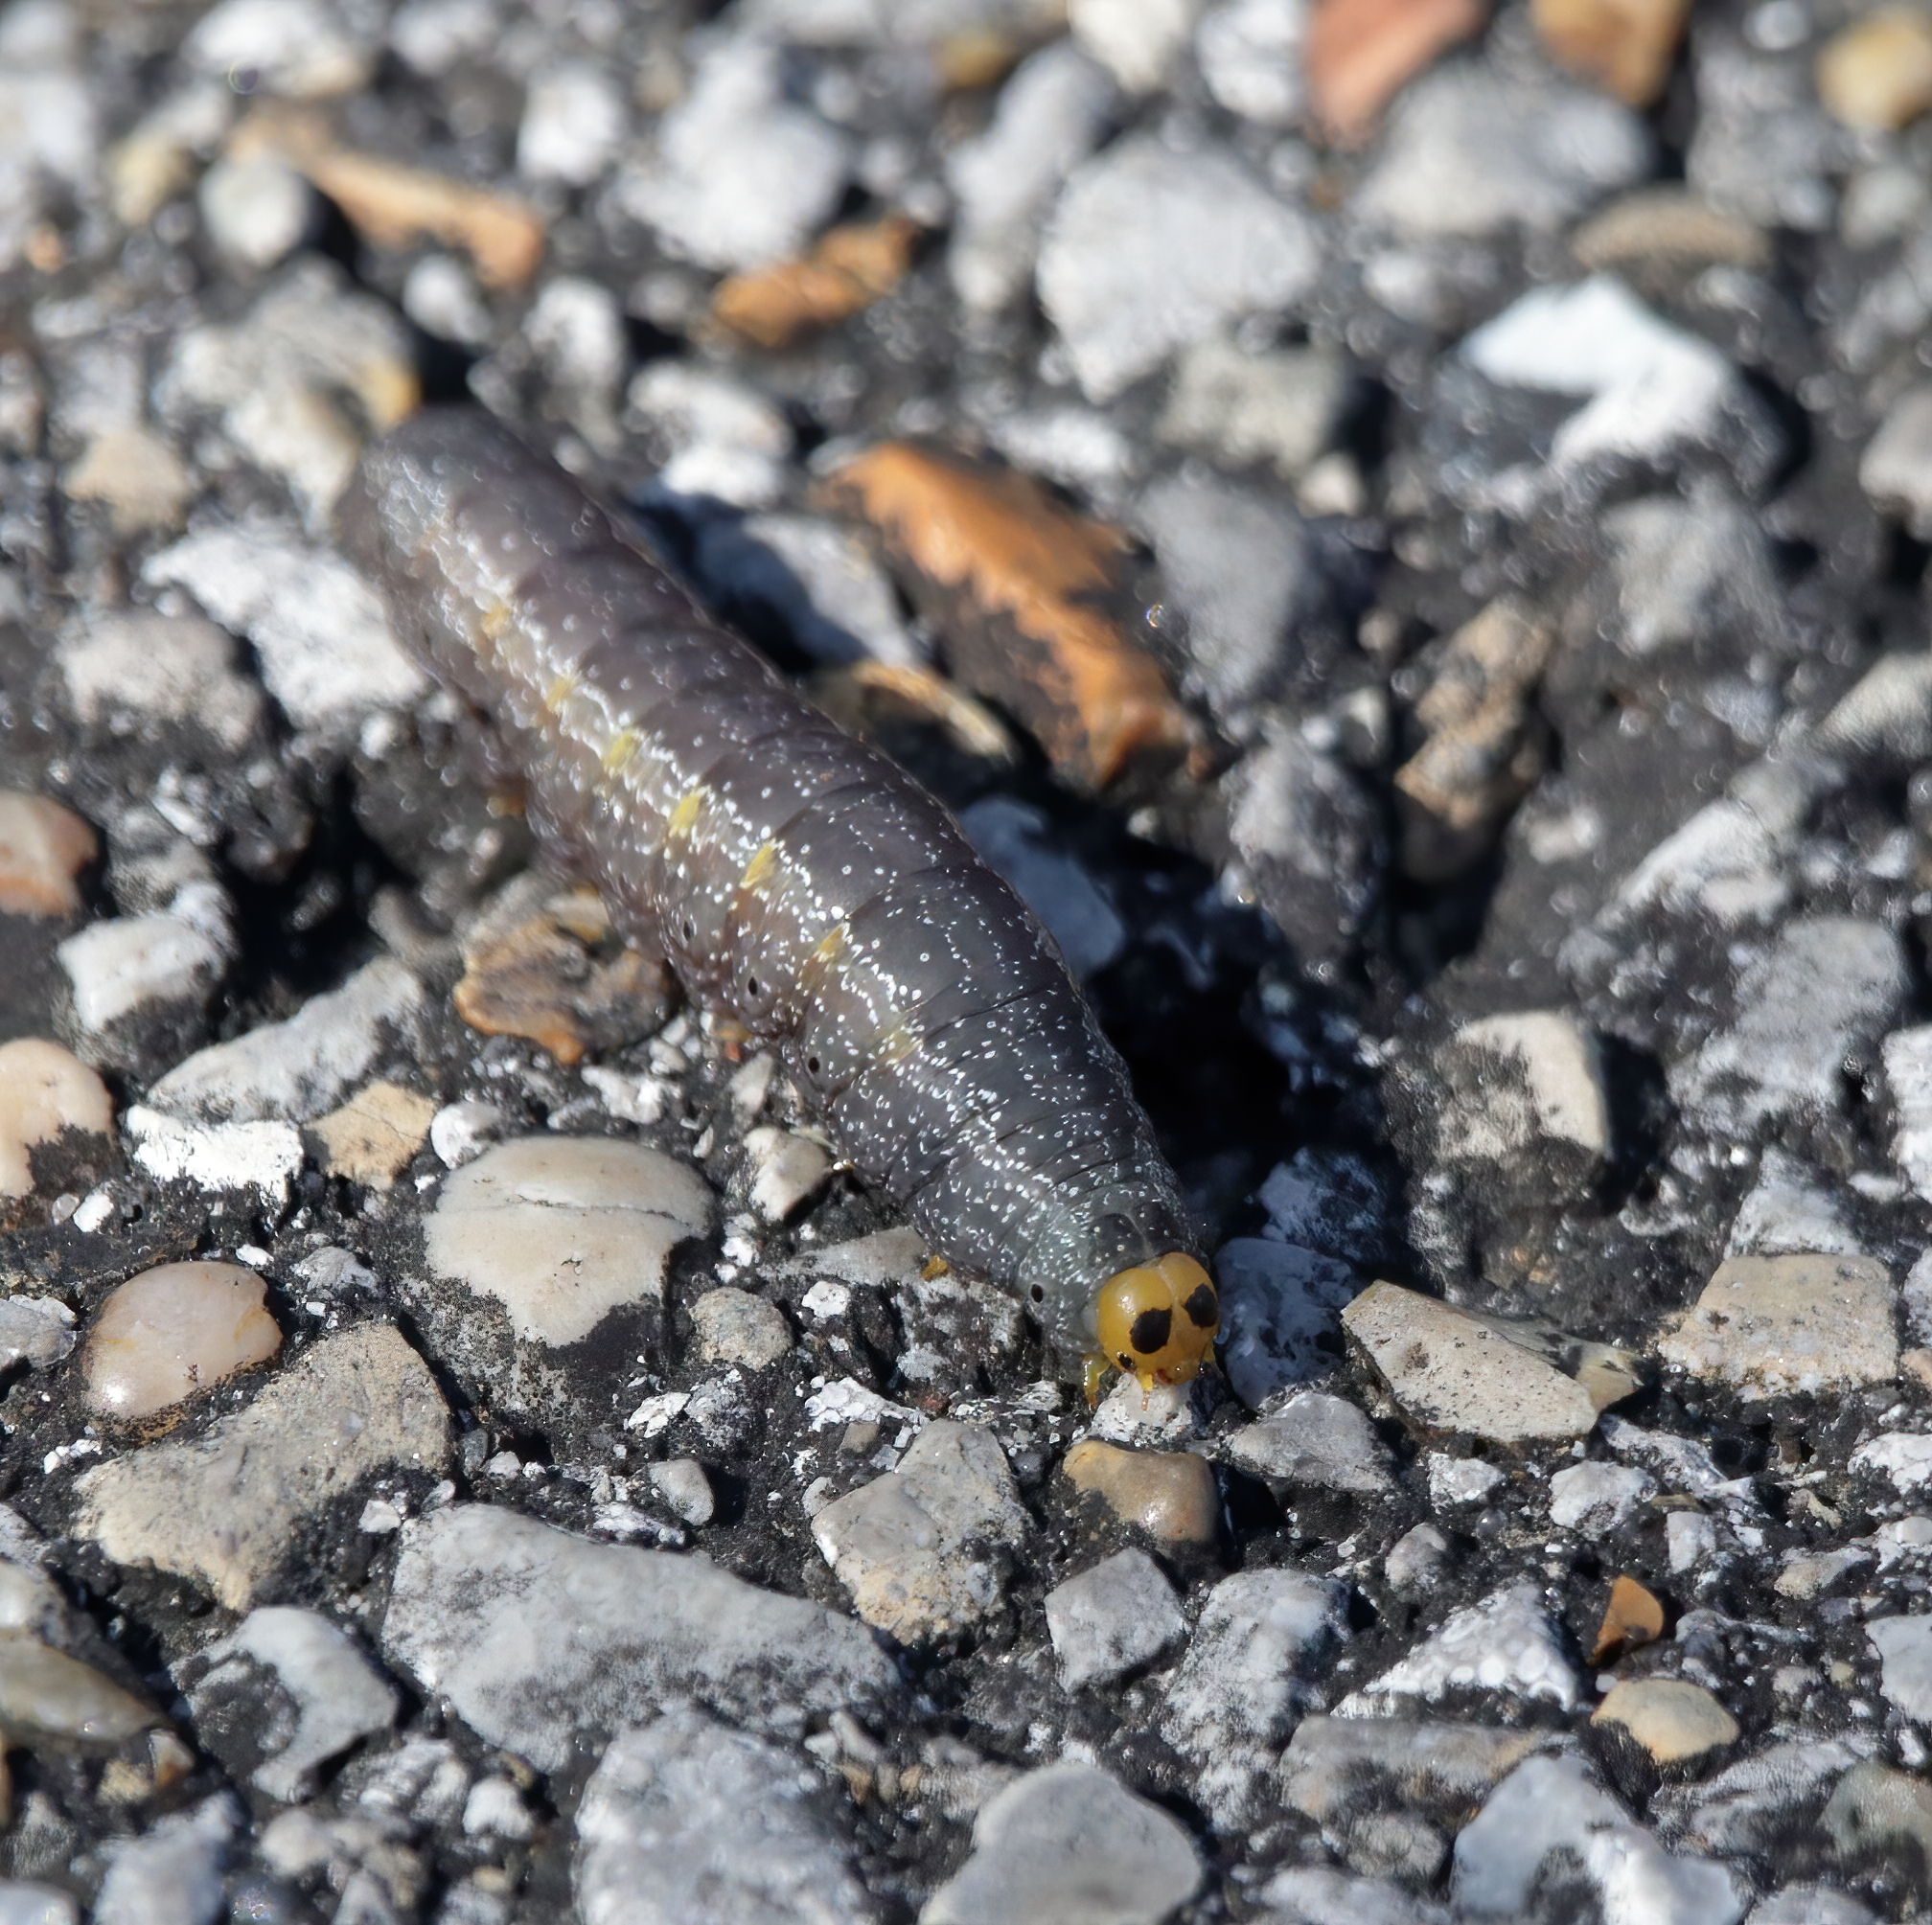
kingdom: Animalia
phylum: Arthropoda
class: Insecta
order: Lepidoptera
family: Erebidae
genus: Hypsoropha
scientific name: Hypsoropha monilis
